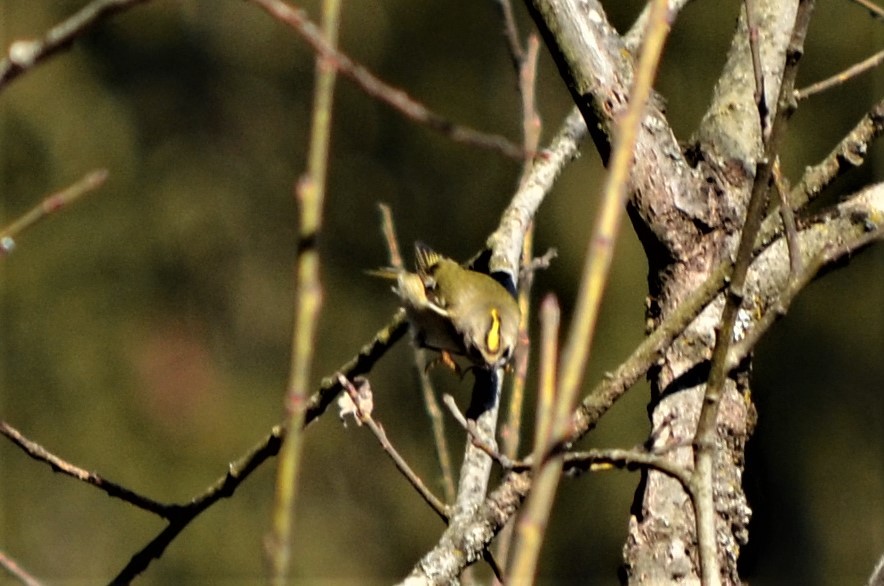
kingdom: Animalia
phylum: Chordata
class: Aves
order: Passeriformes
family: Regulidae
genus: Regulus
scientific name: Regulus regulus
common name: Goldcrest
